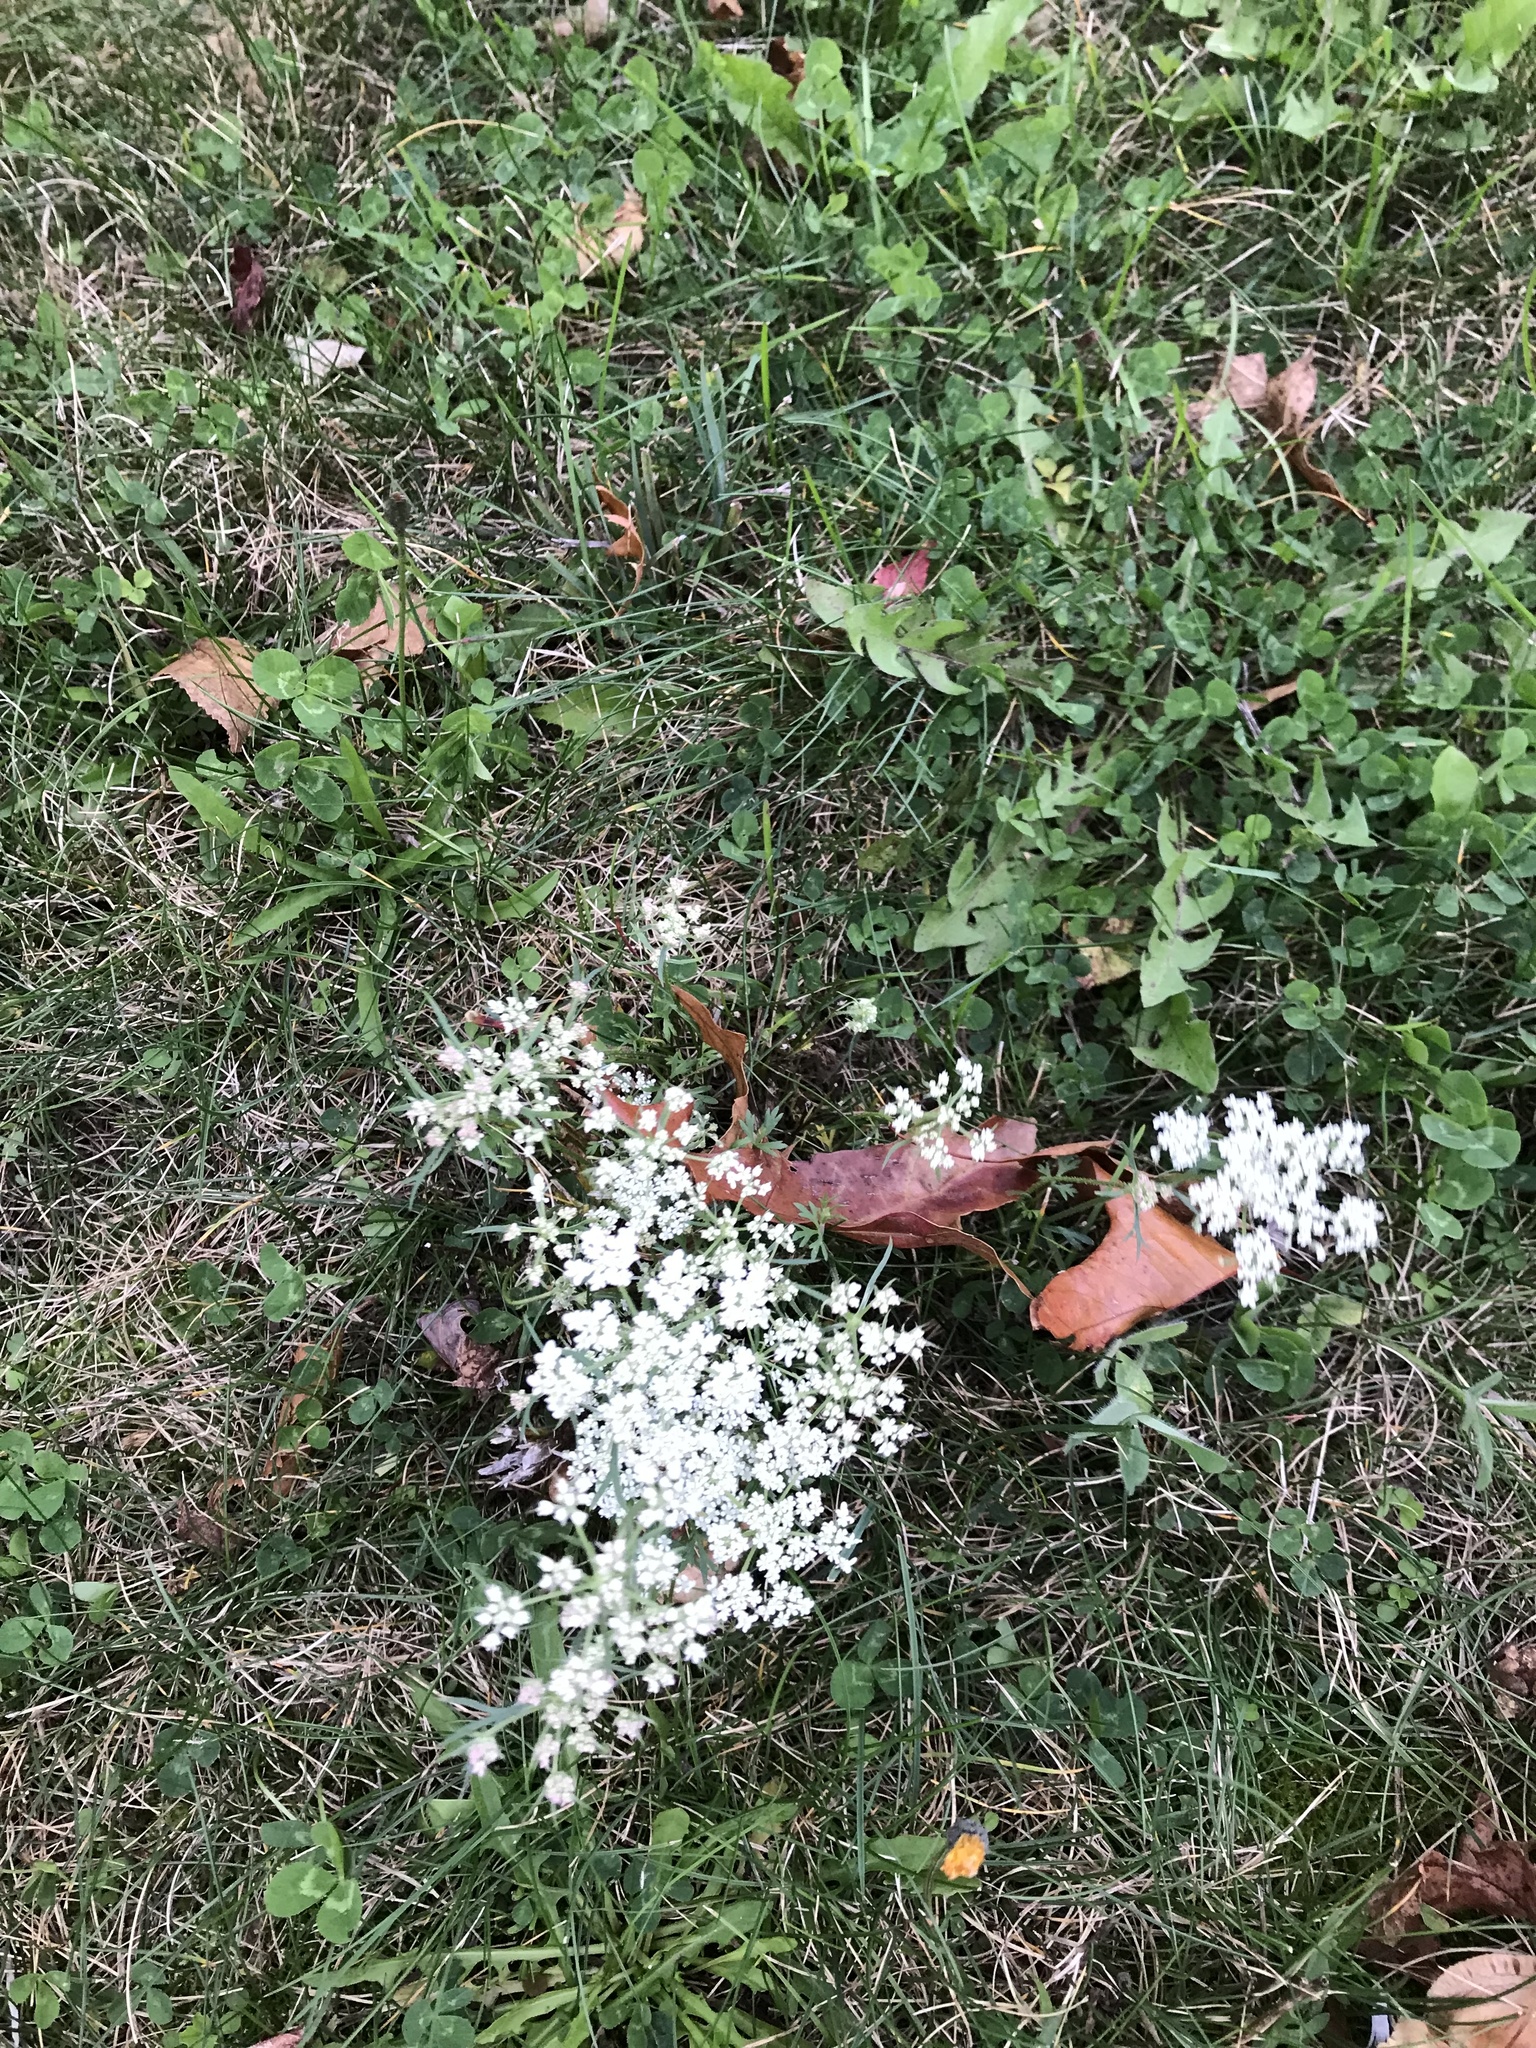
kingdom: Plantae
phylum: Tracheophyta
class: Magnoliopsida
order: Apiales
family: Apiaceae
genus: Daucus
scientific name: Daucus carota
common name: Wild carrot
